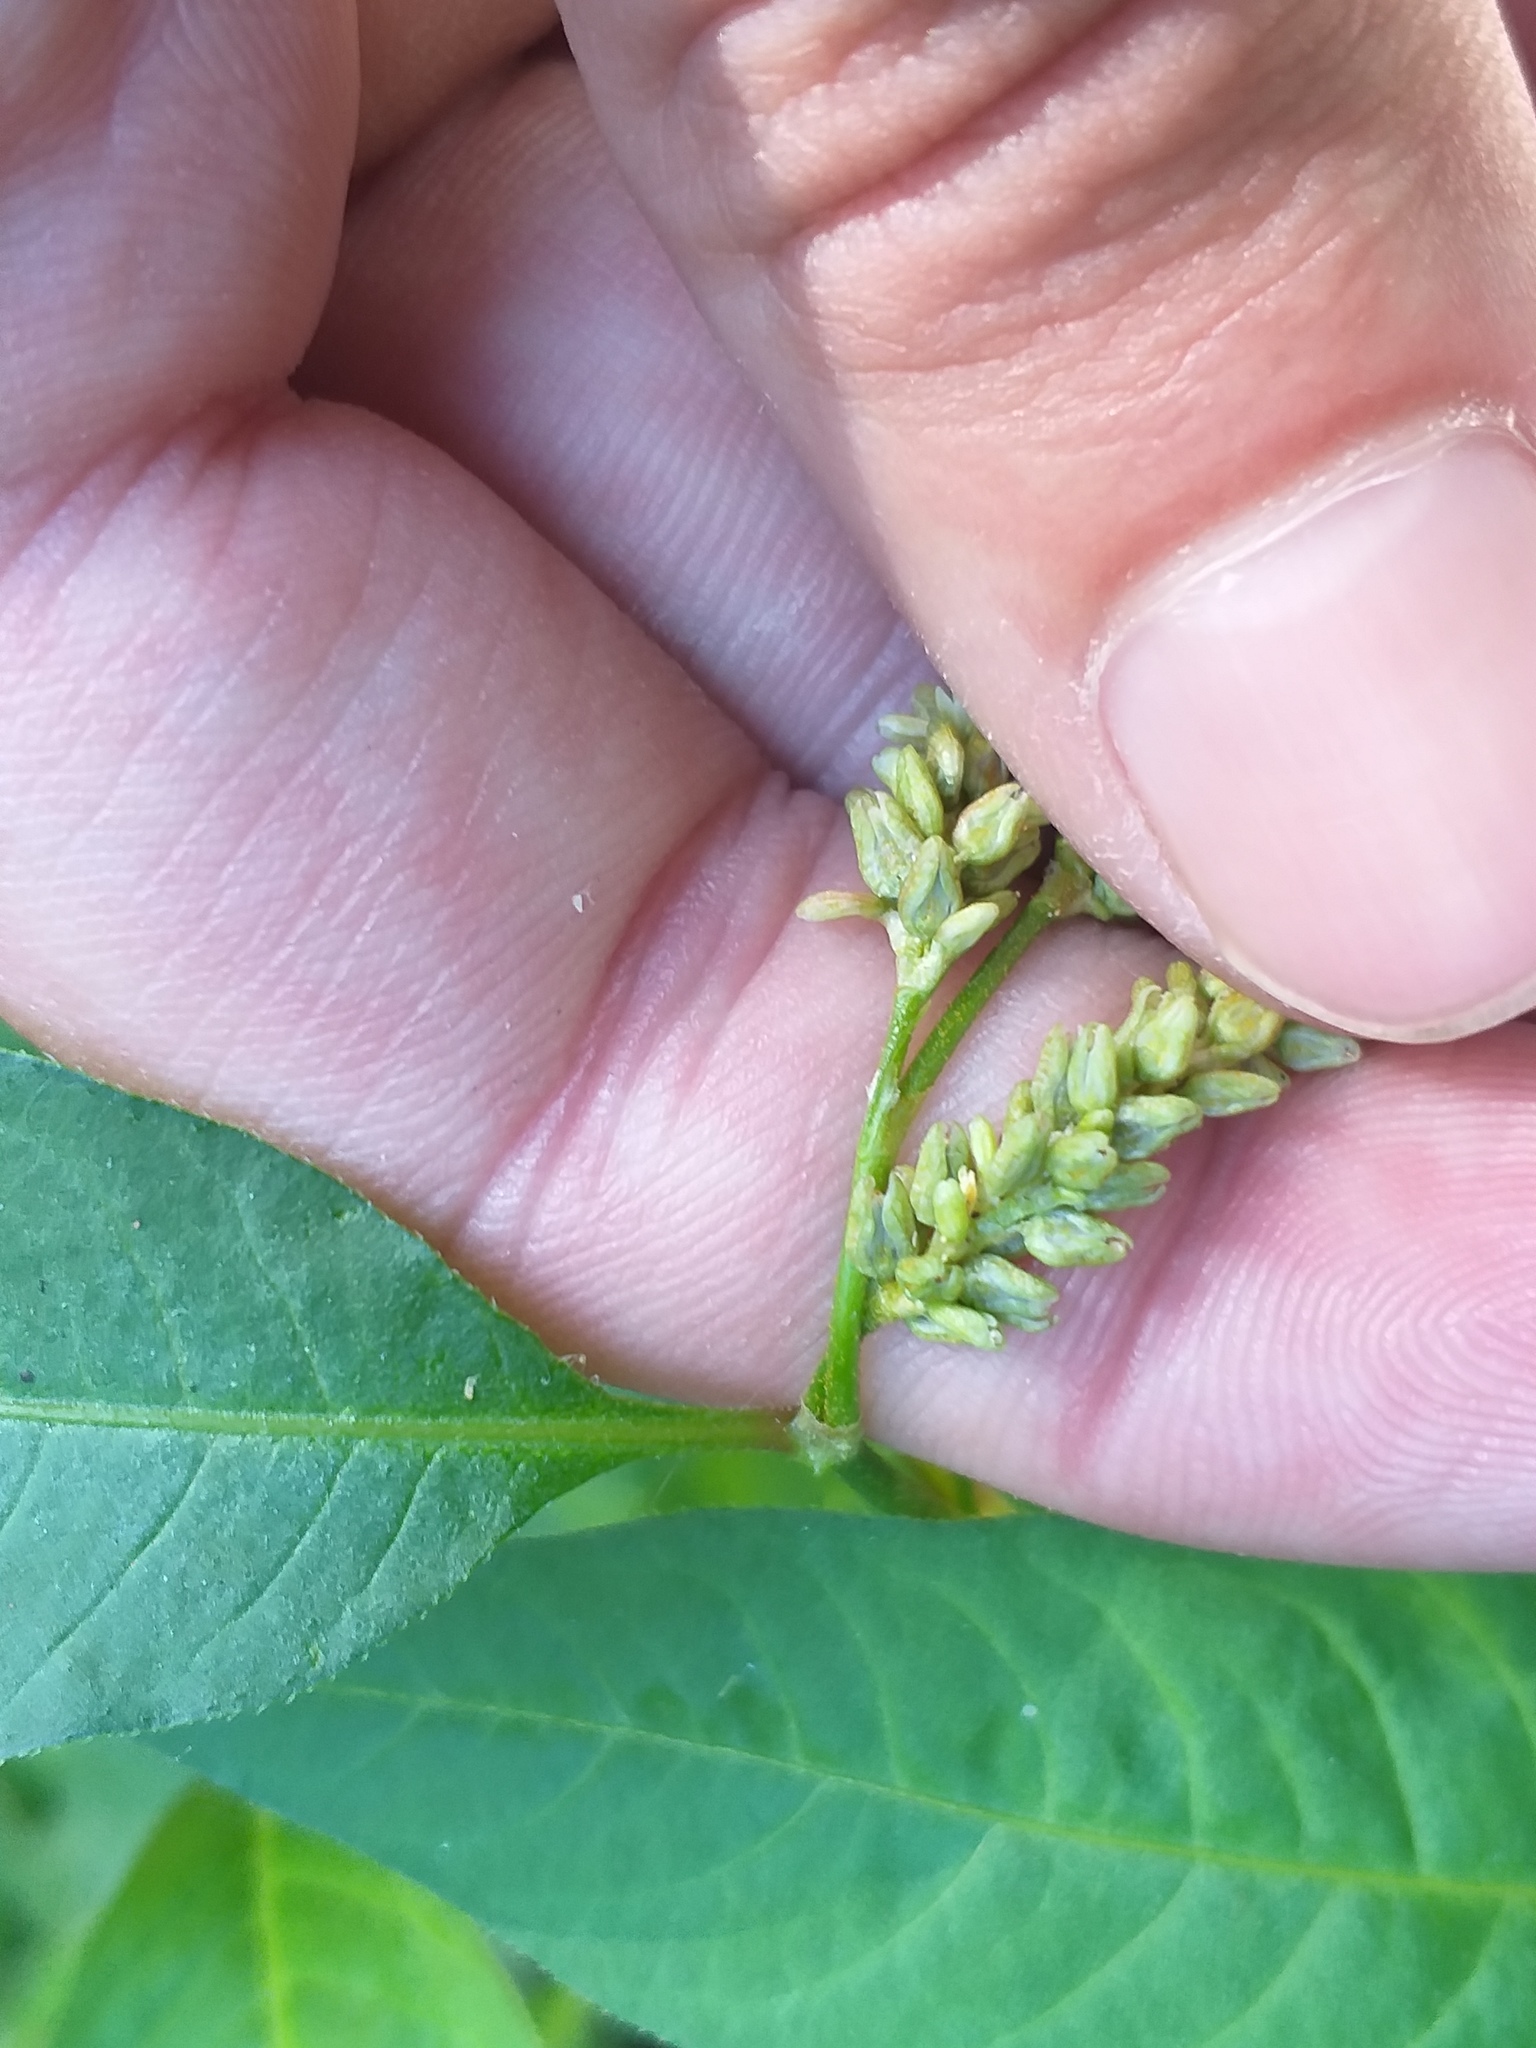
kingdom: Plantae
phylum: Tracheophyta
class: Magnoliopsida
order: Caryophyllales
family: Polygonaceae
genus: Persicaria
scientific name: Persicaria lapathifolia
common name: Curlytop knotweed
